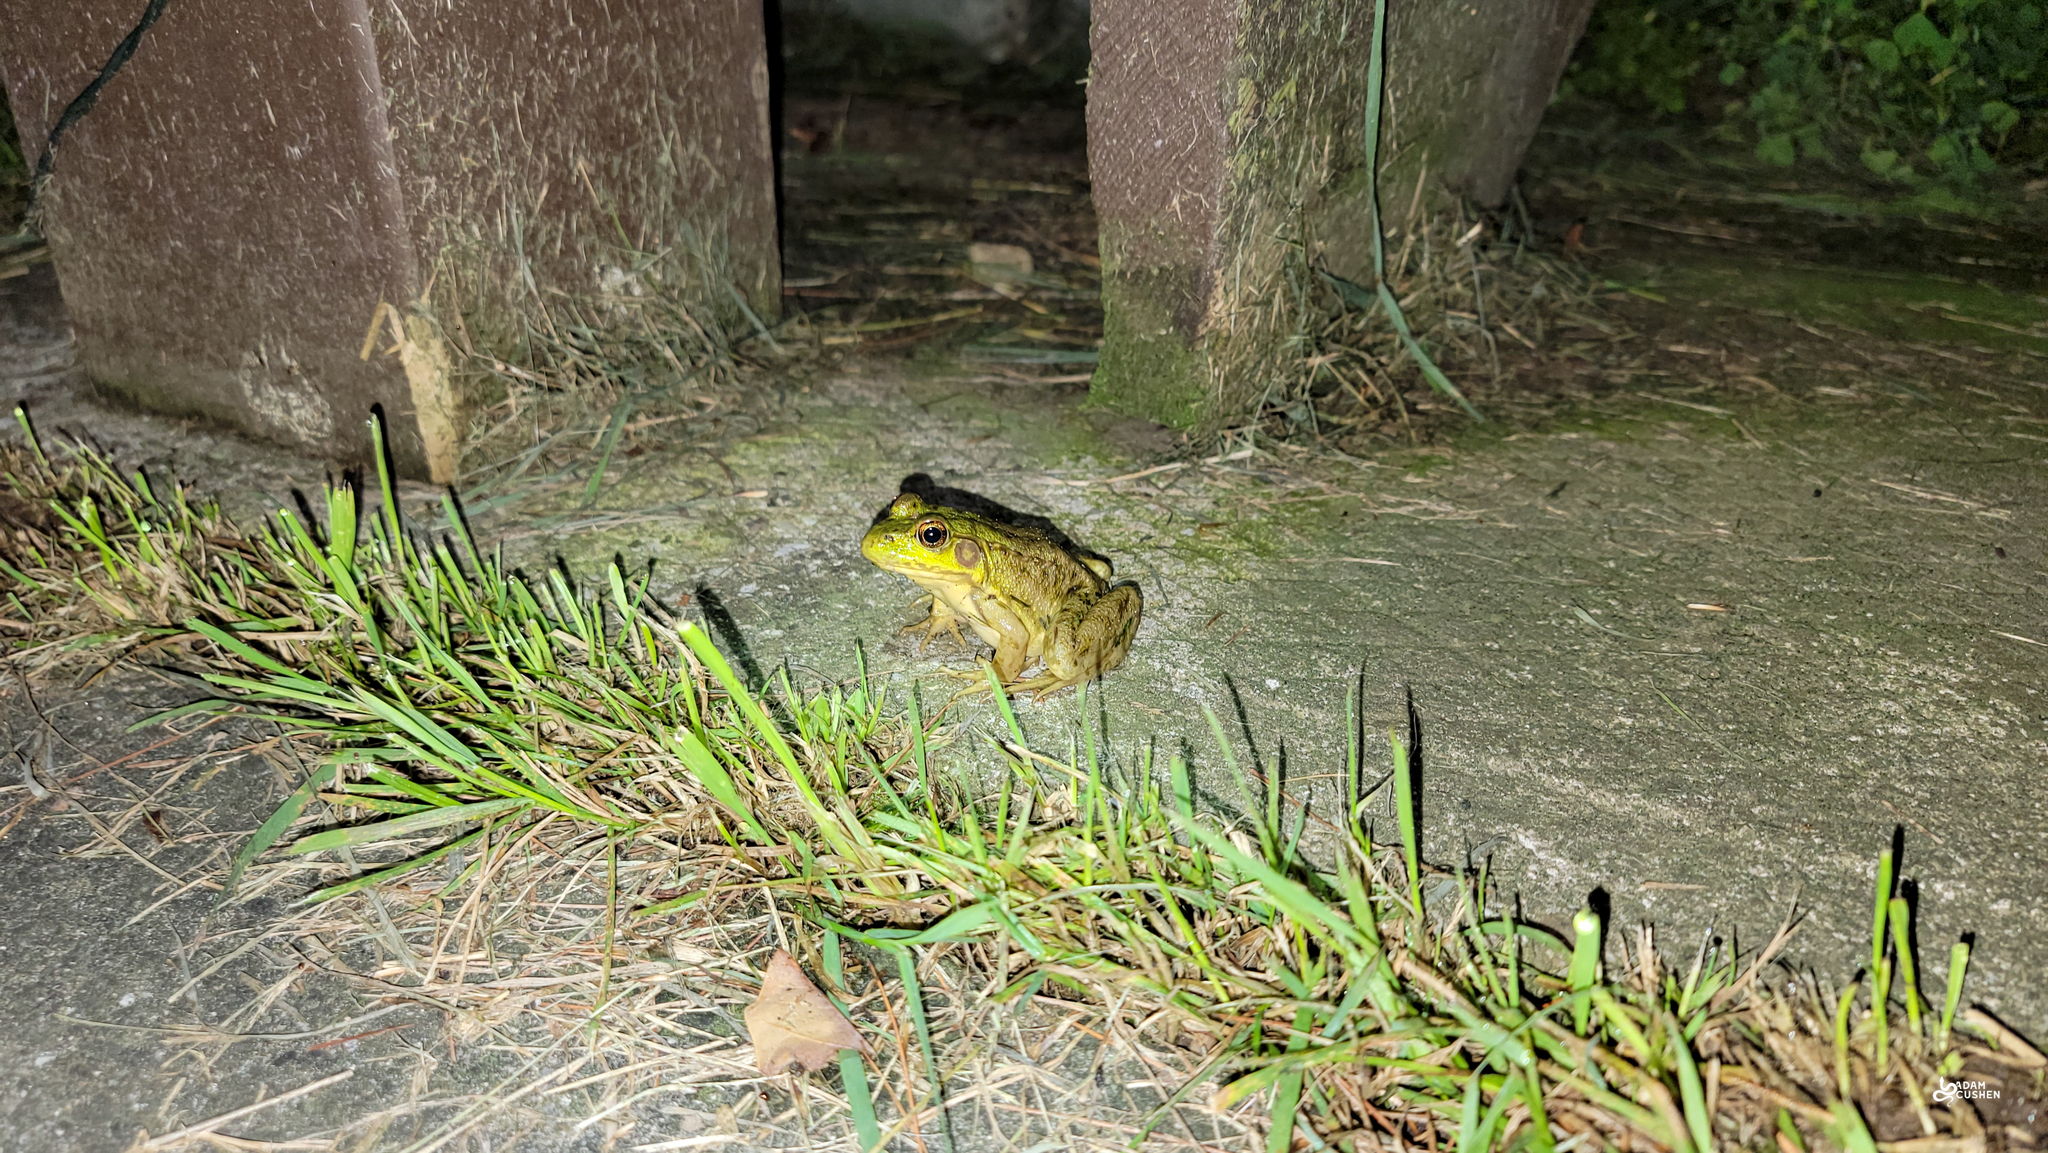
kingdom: Animalia
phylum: Chordata
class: Amphibia
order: Anura
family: Ranidae
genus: Lithobates
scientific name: Lithobates clamitans
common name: Green frog
